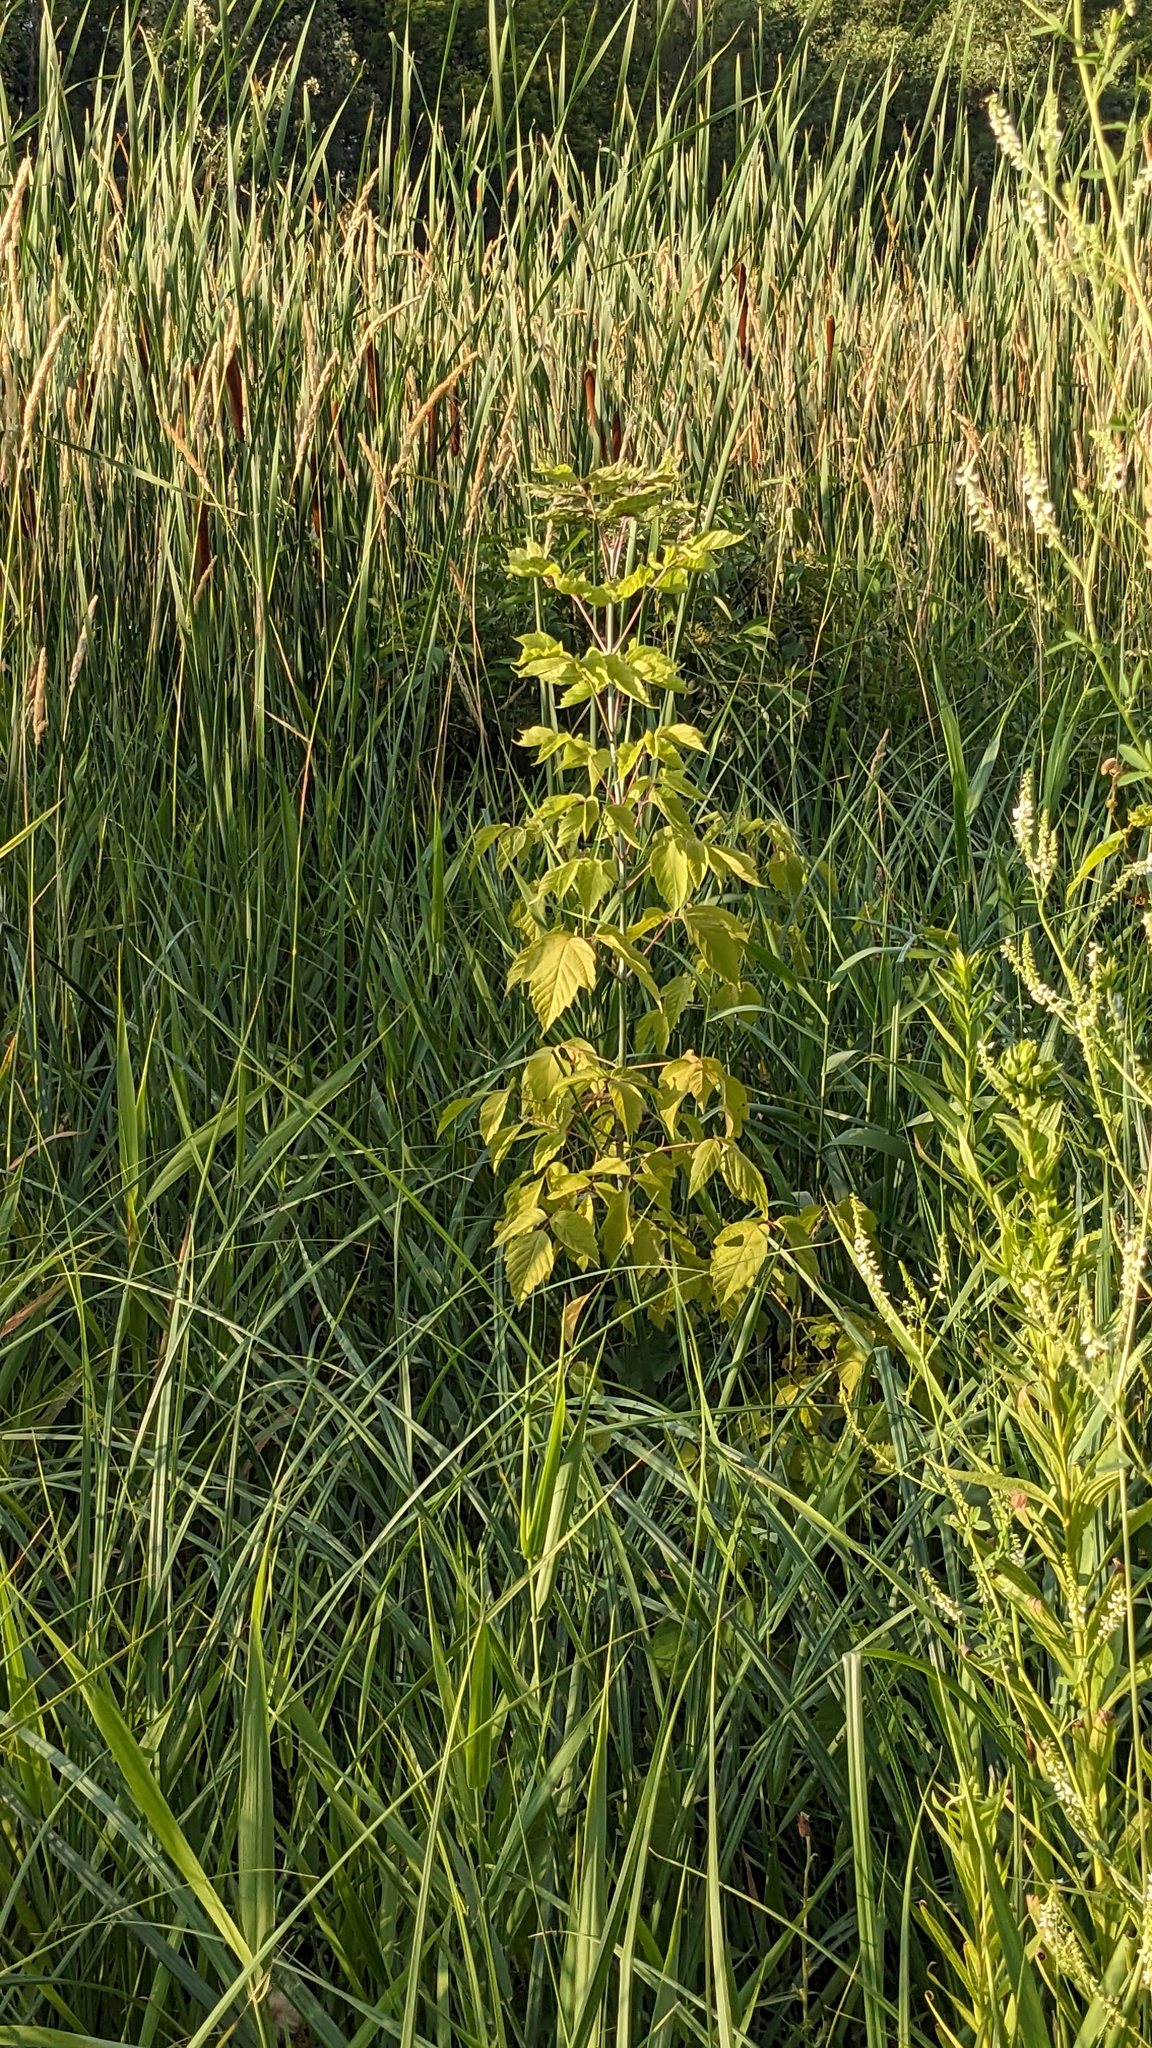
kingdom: Plantae
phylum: Tracheophyta
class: Magnoliopsida
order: Sapindales
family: Sapindaceae
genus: Acer
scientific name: Acer negundo
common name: Ashleaf maple
